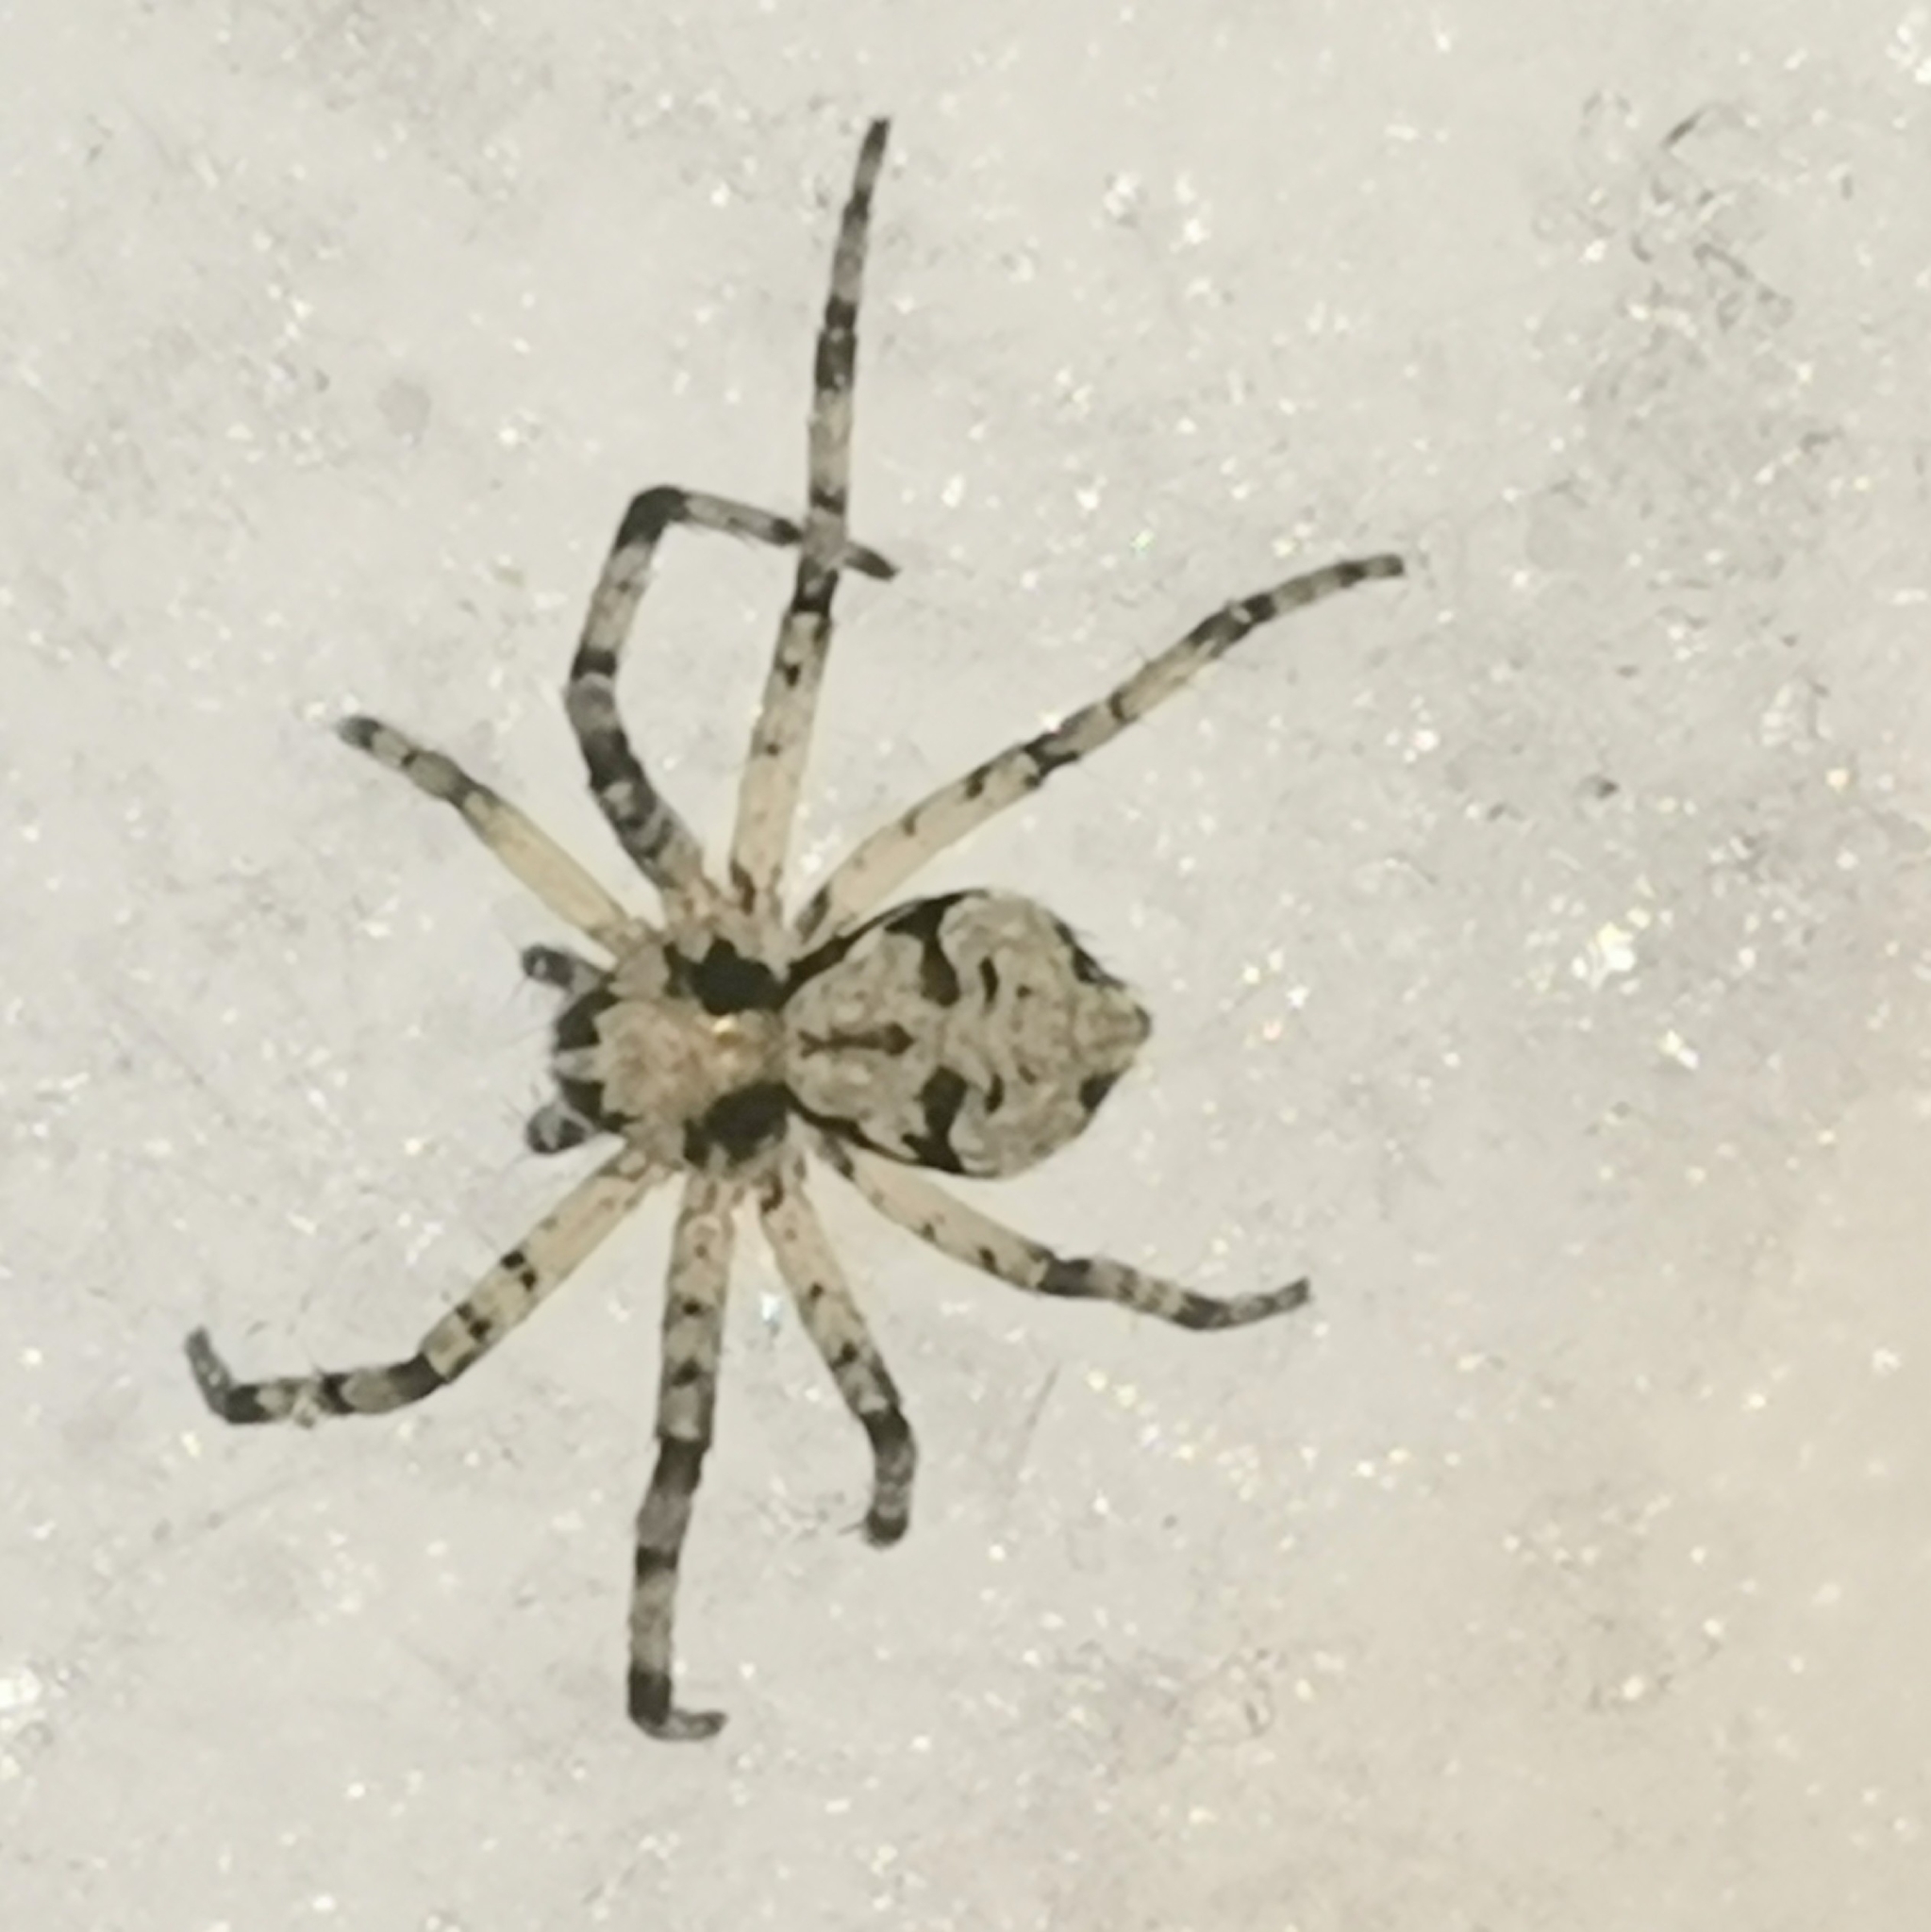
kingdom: Animalia
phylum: Arthropoda
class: Arachnida
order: Araneae
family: Philodromidae
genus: Philodromus
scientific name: Philodromus margaritatus
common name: Lichen running-spider
